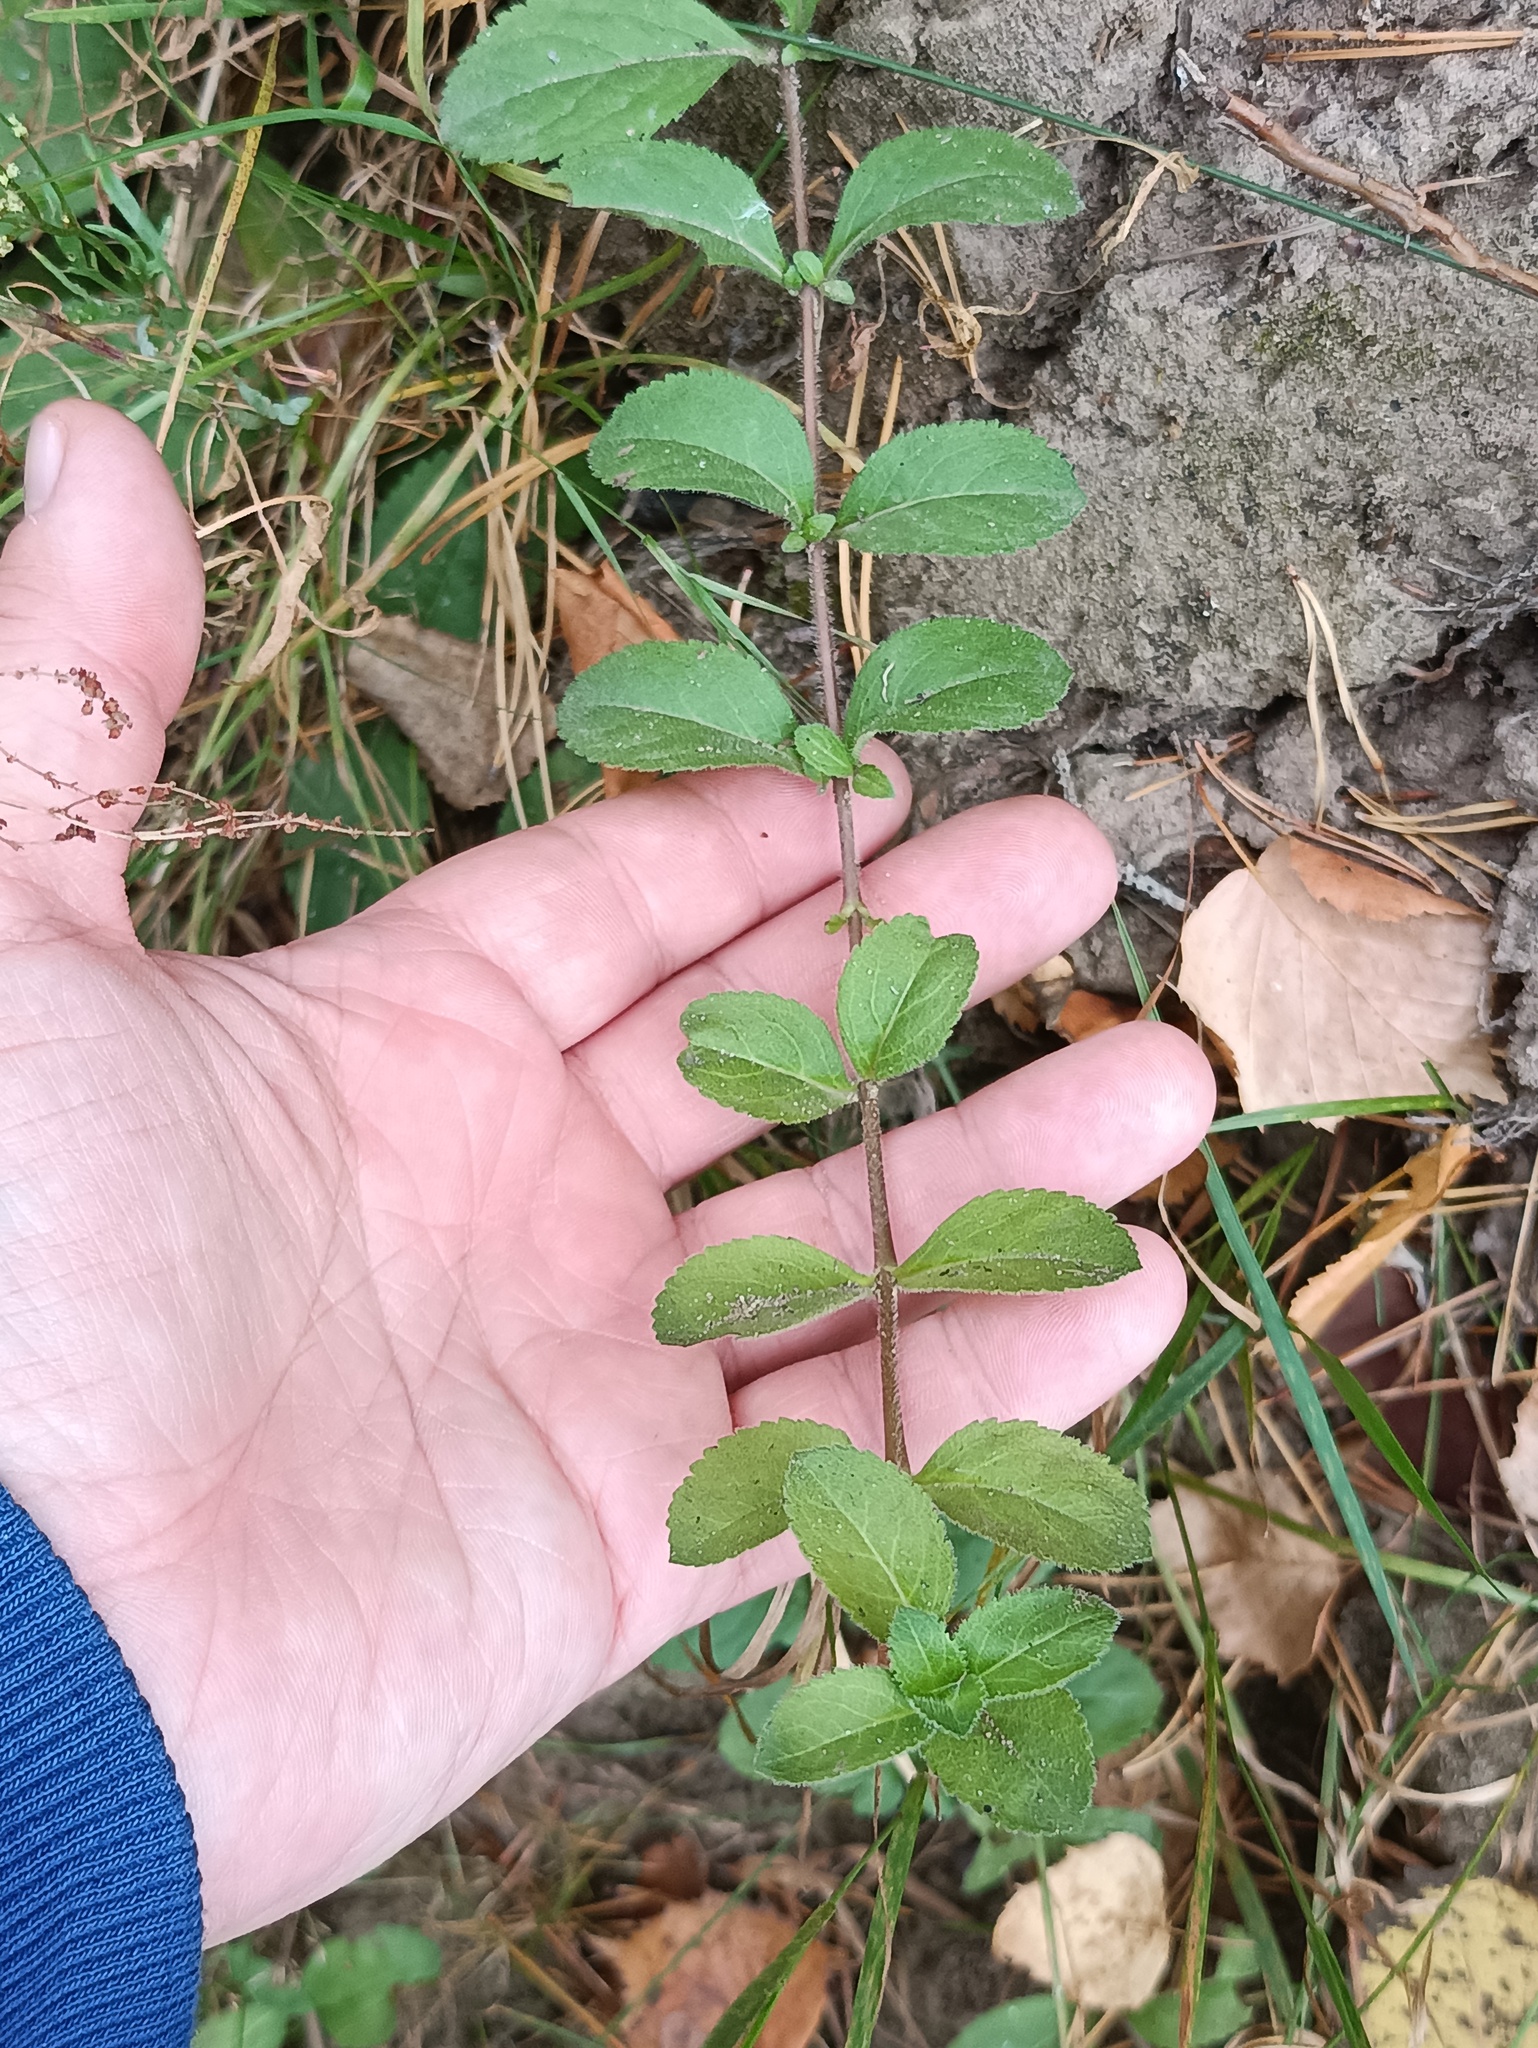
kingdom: Plantae
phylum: Tracheophyta
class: Magnoliopsida
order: Lamiales
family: Plantaginaceae
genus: Veronica
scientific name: Veronica officinalis
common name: Common speedwell
